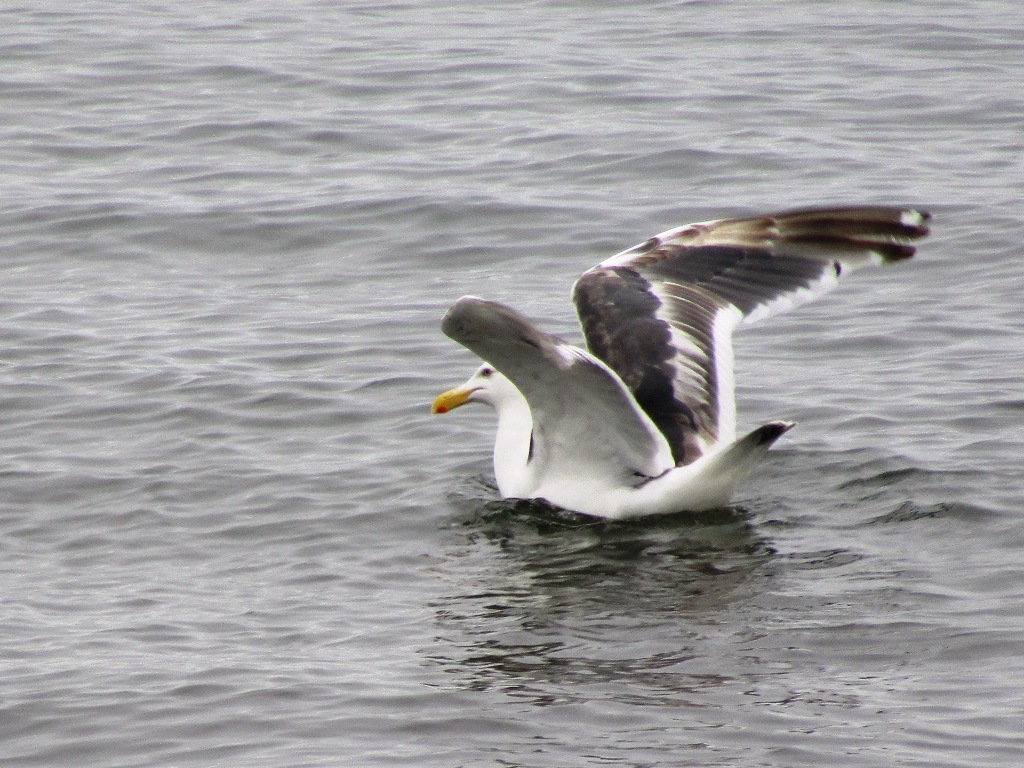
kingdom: Animalia
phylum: Chordata
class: Aves
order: Charadriiformes
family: Laridae
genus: Larus
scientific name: Larus schistisagus
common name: Slaty-backed gull
